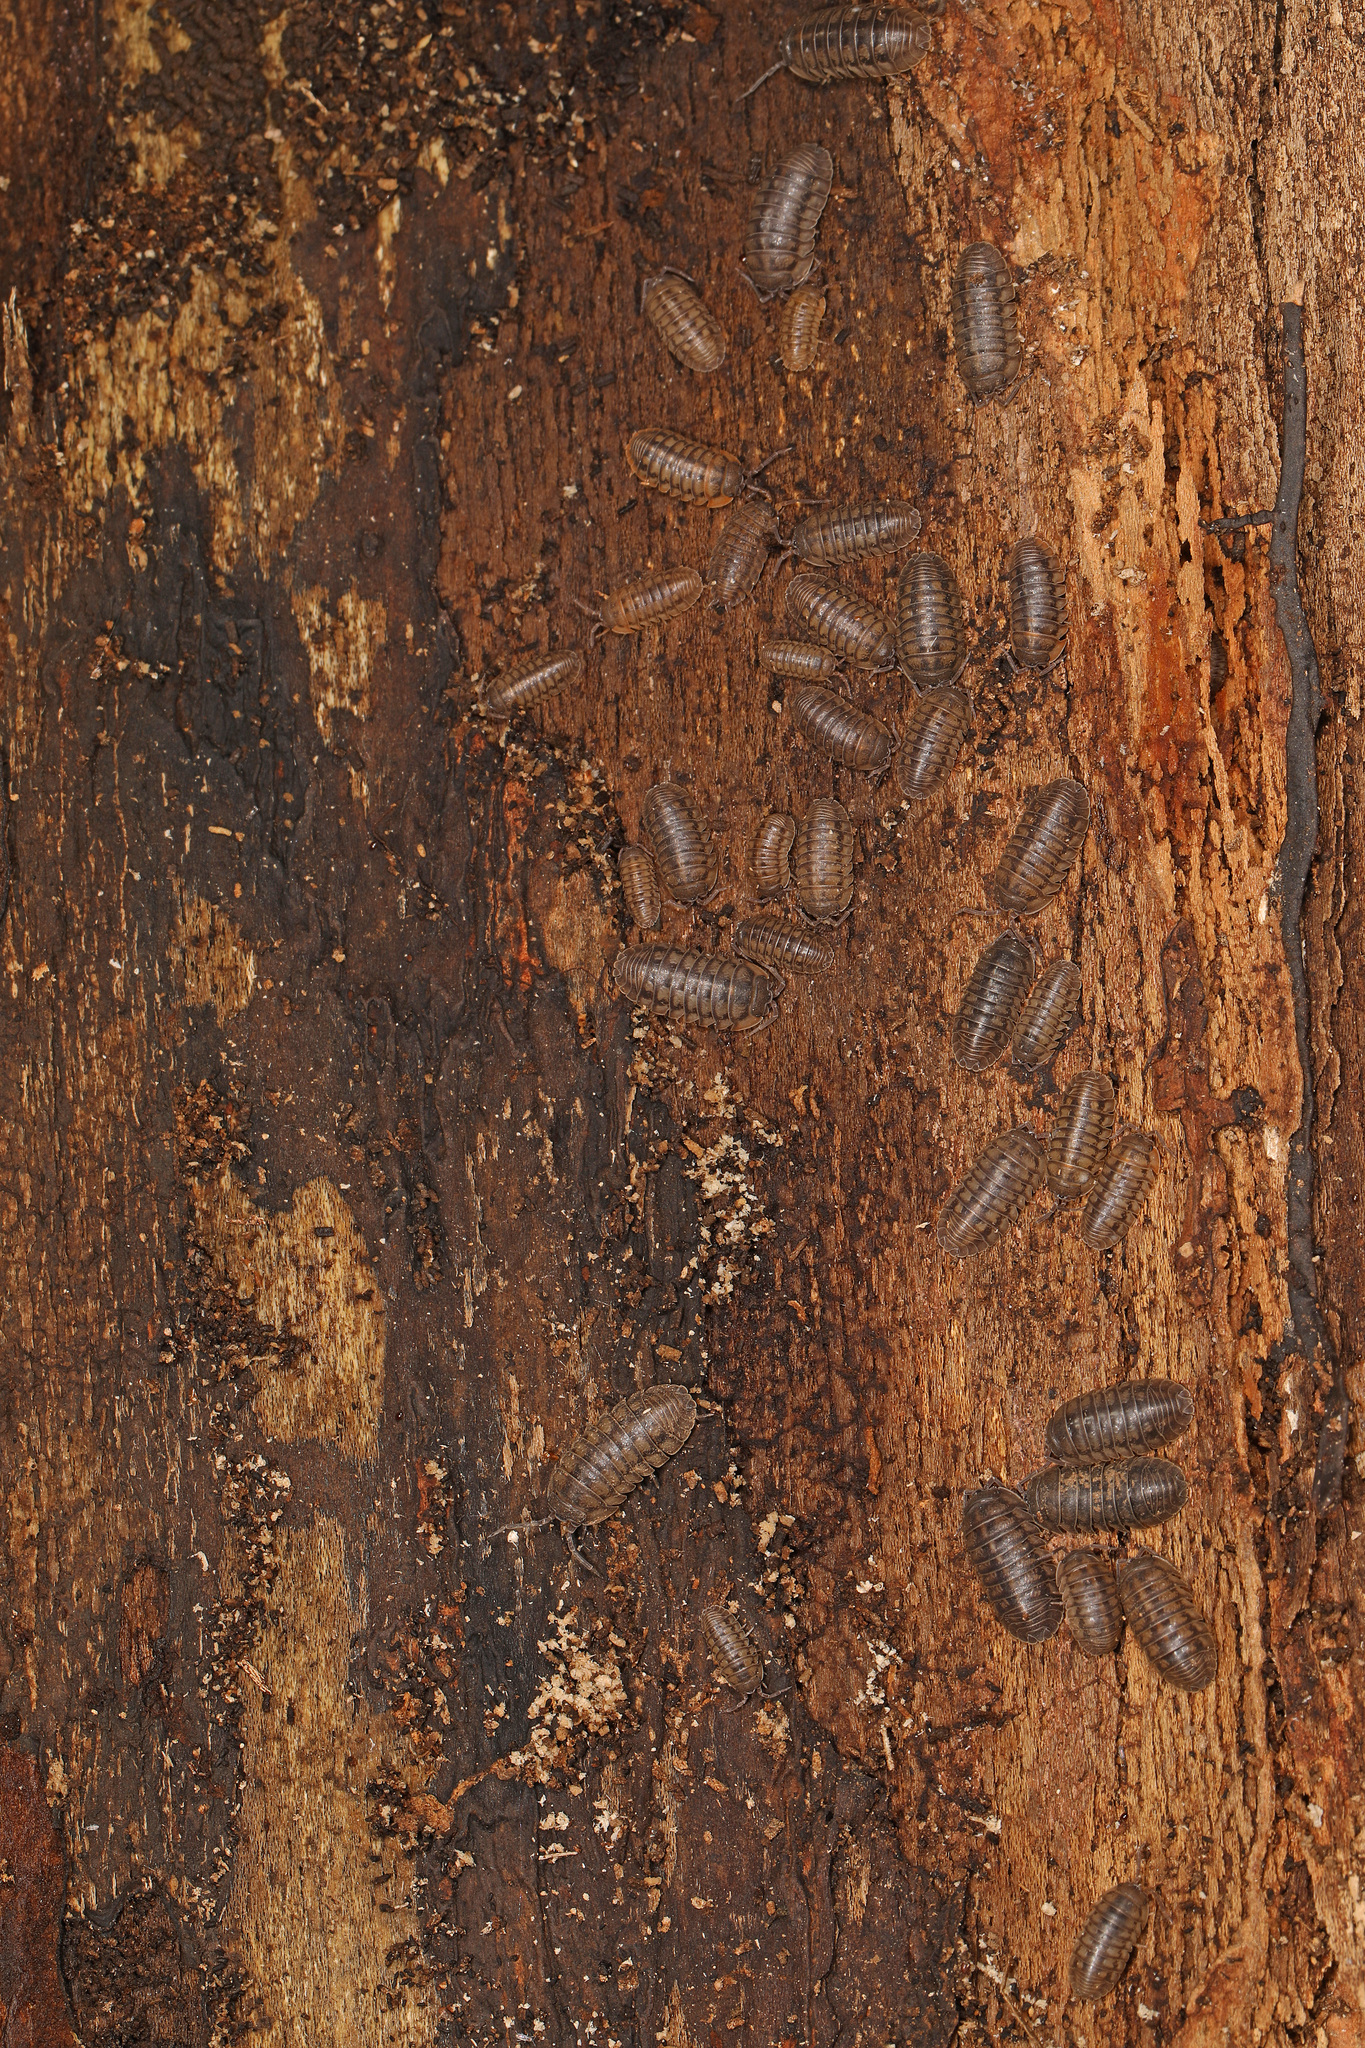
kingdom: Animalia
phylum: Arthropoda
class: Malacostraca
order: Isopoda
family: Armadillidiidae
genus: Armadillidium
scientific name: Armadillidium nasatum
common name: Isopod
